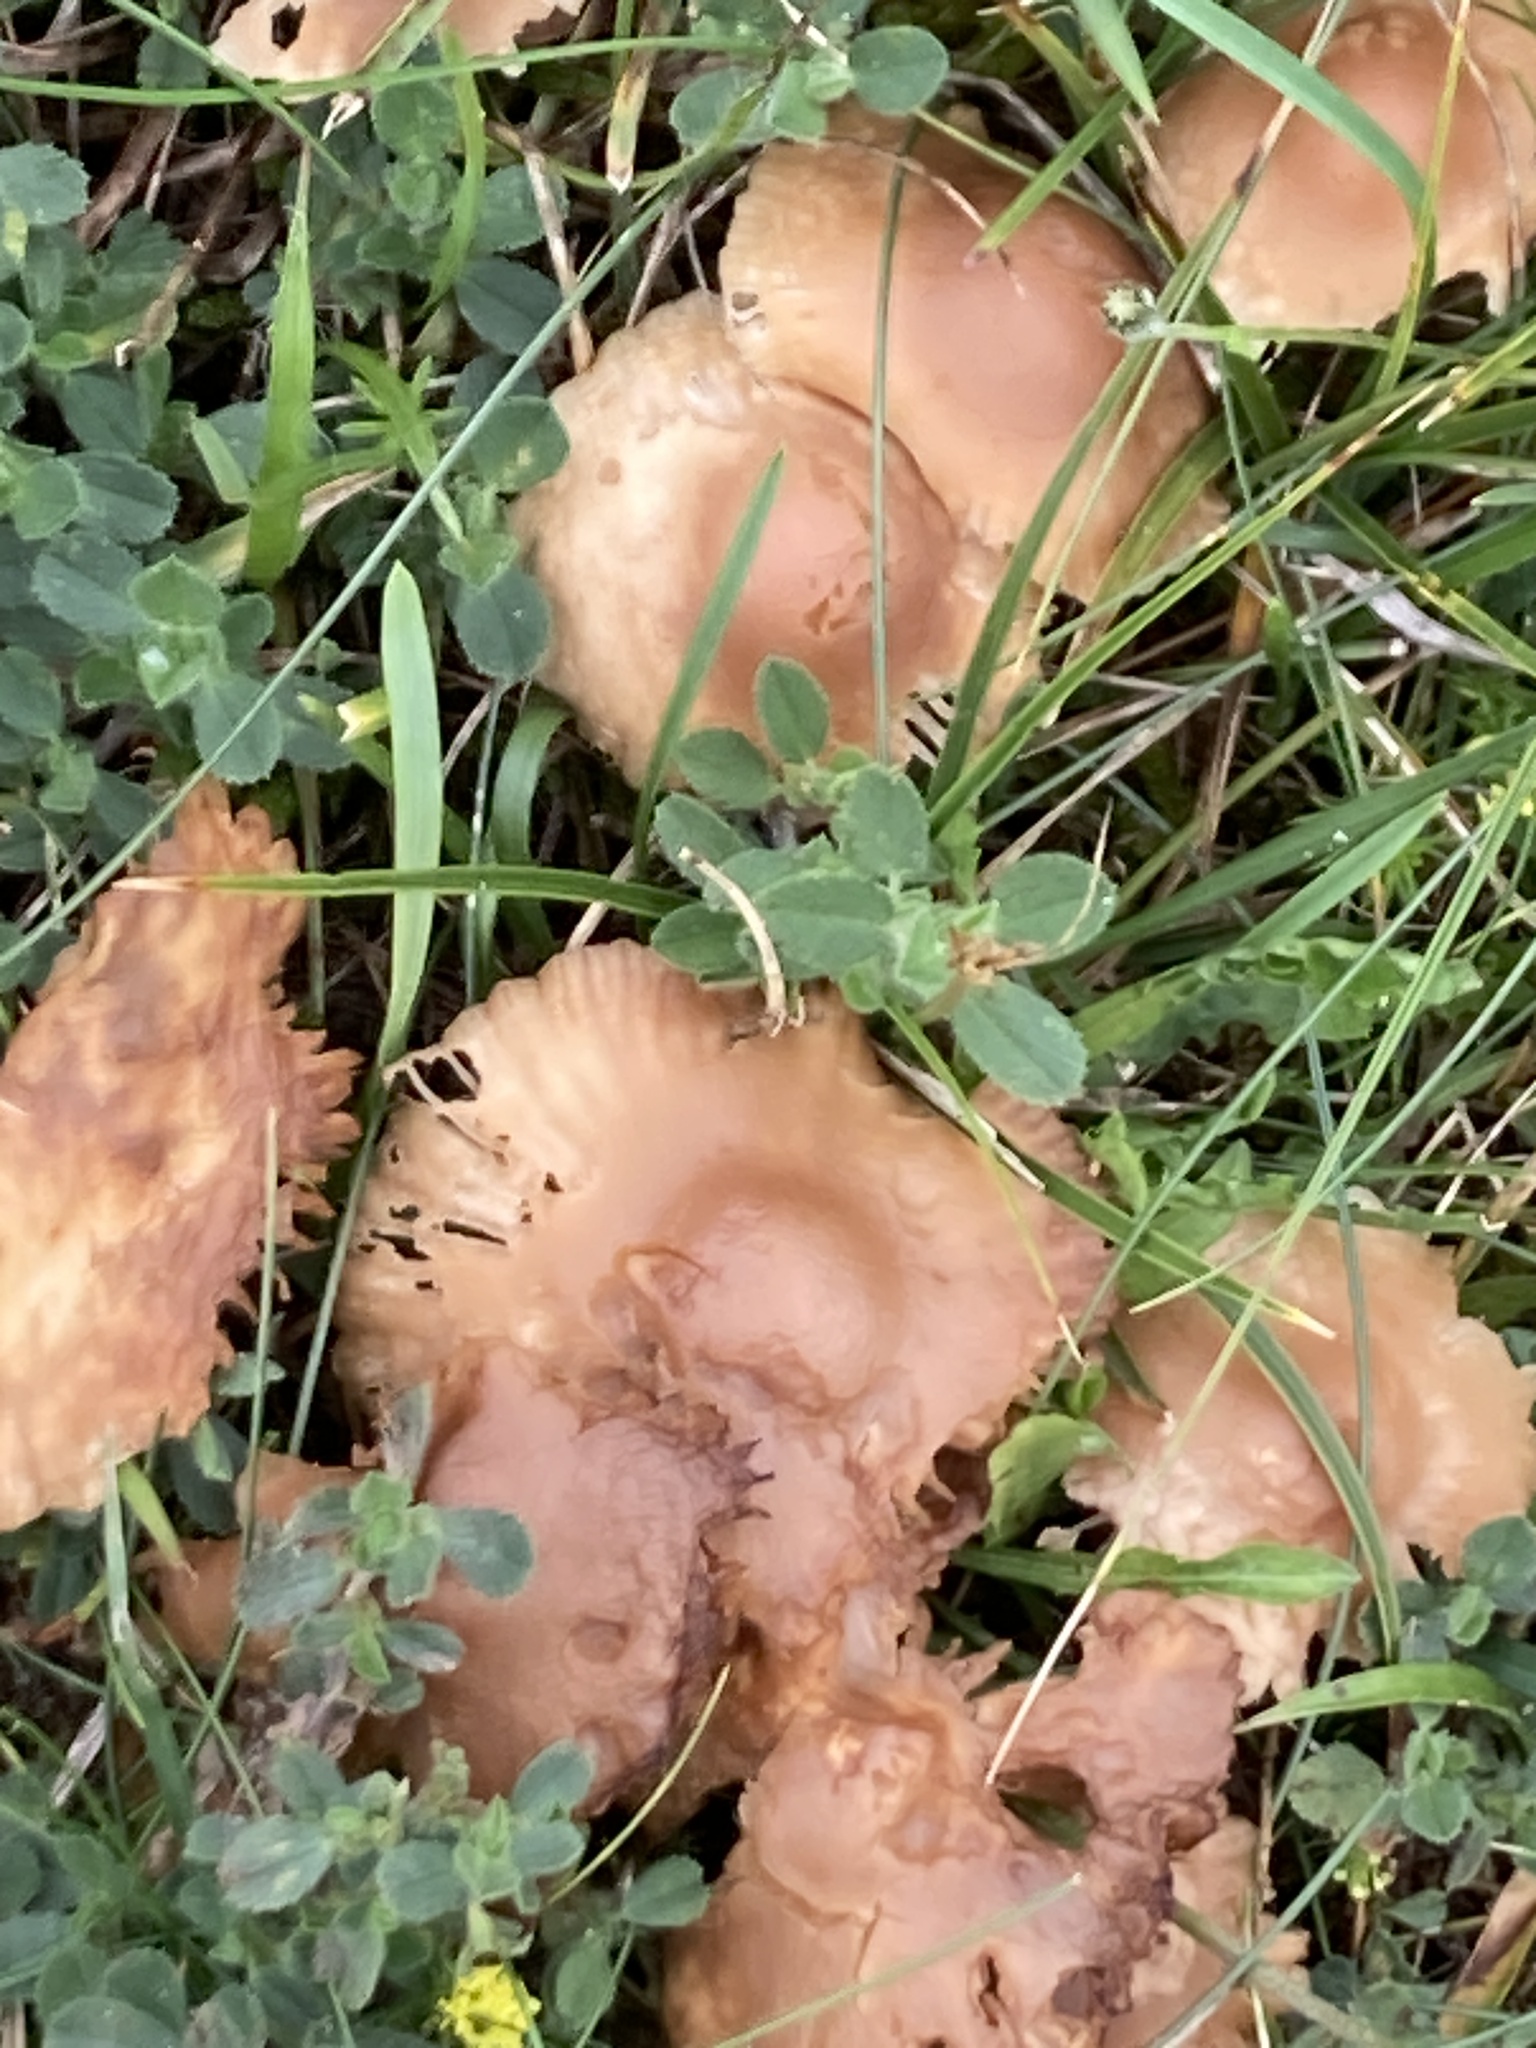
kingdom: Fungi
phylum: Basidiomycota
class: Agaricomycetes
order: Agaricales
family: Marasmiaceae
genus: Marasmius
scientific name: Marasmius oreades
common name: Fairy ring champignon
